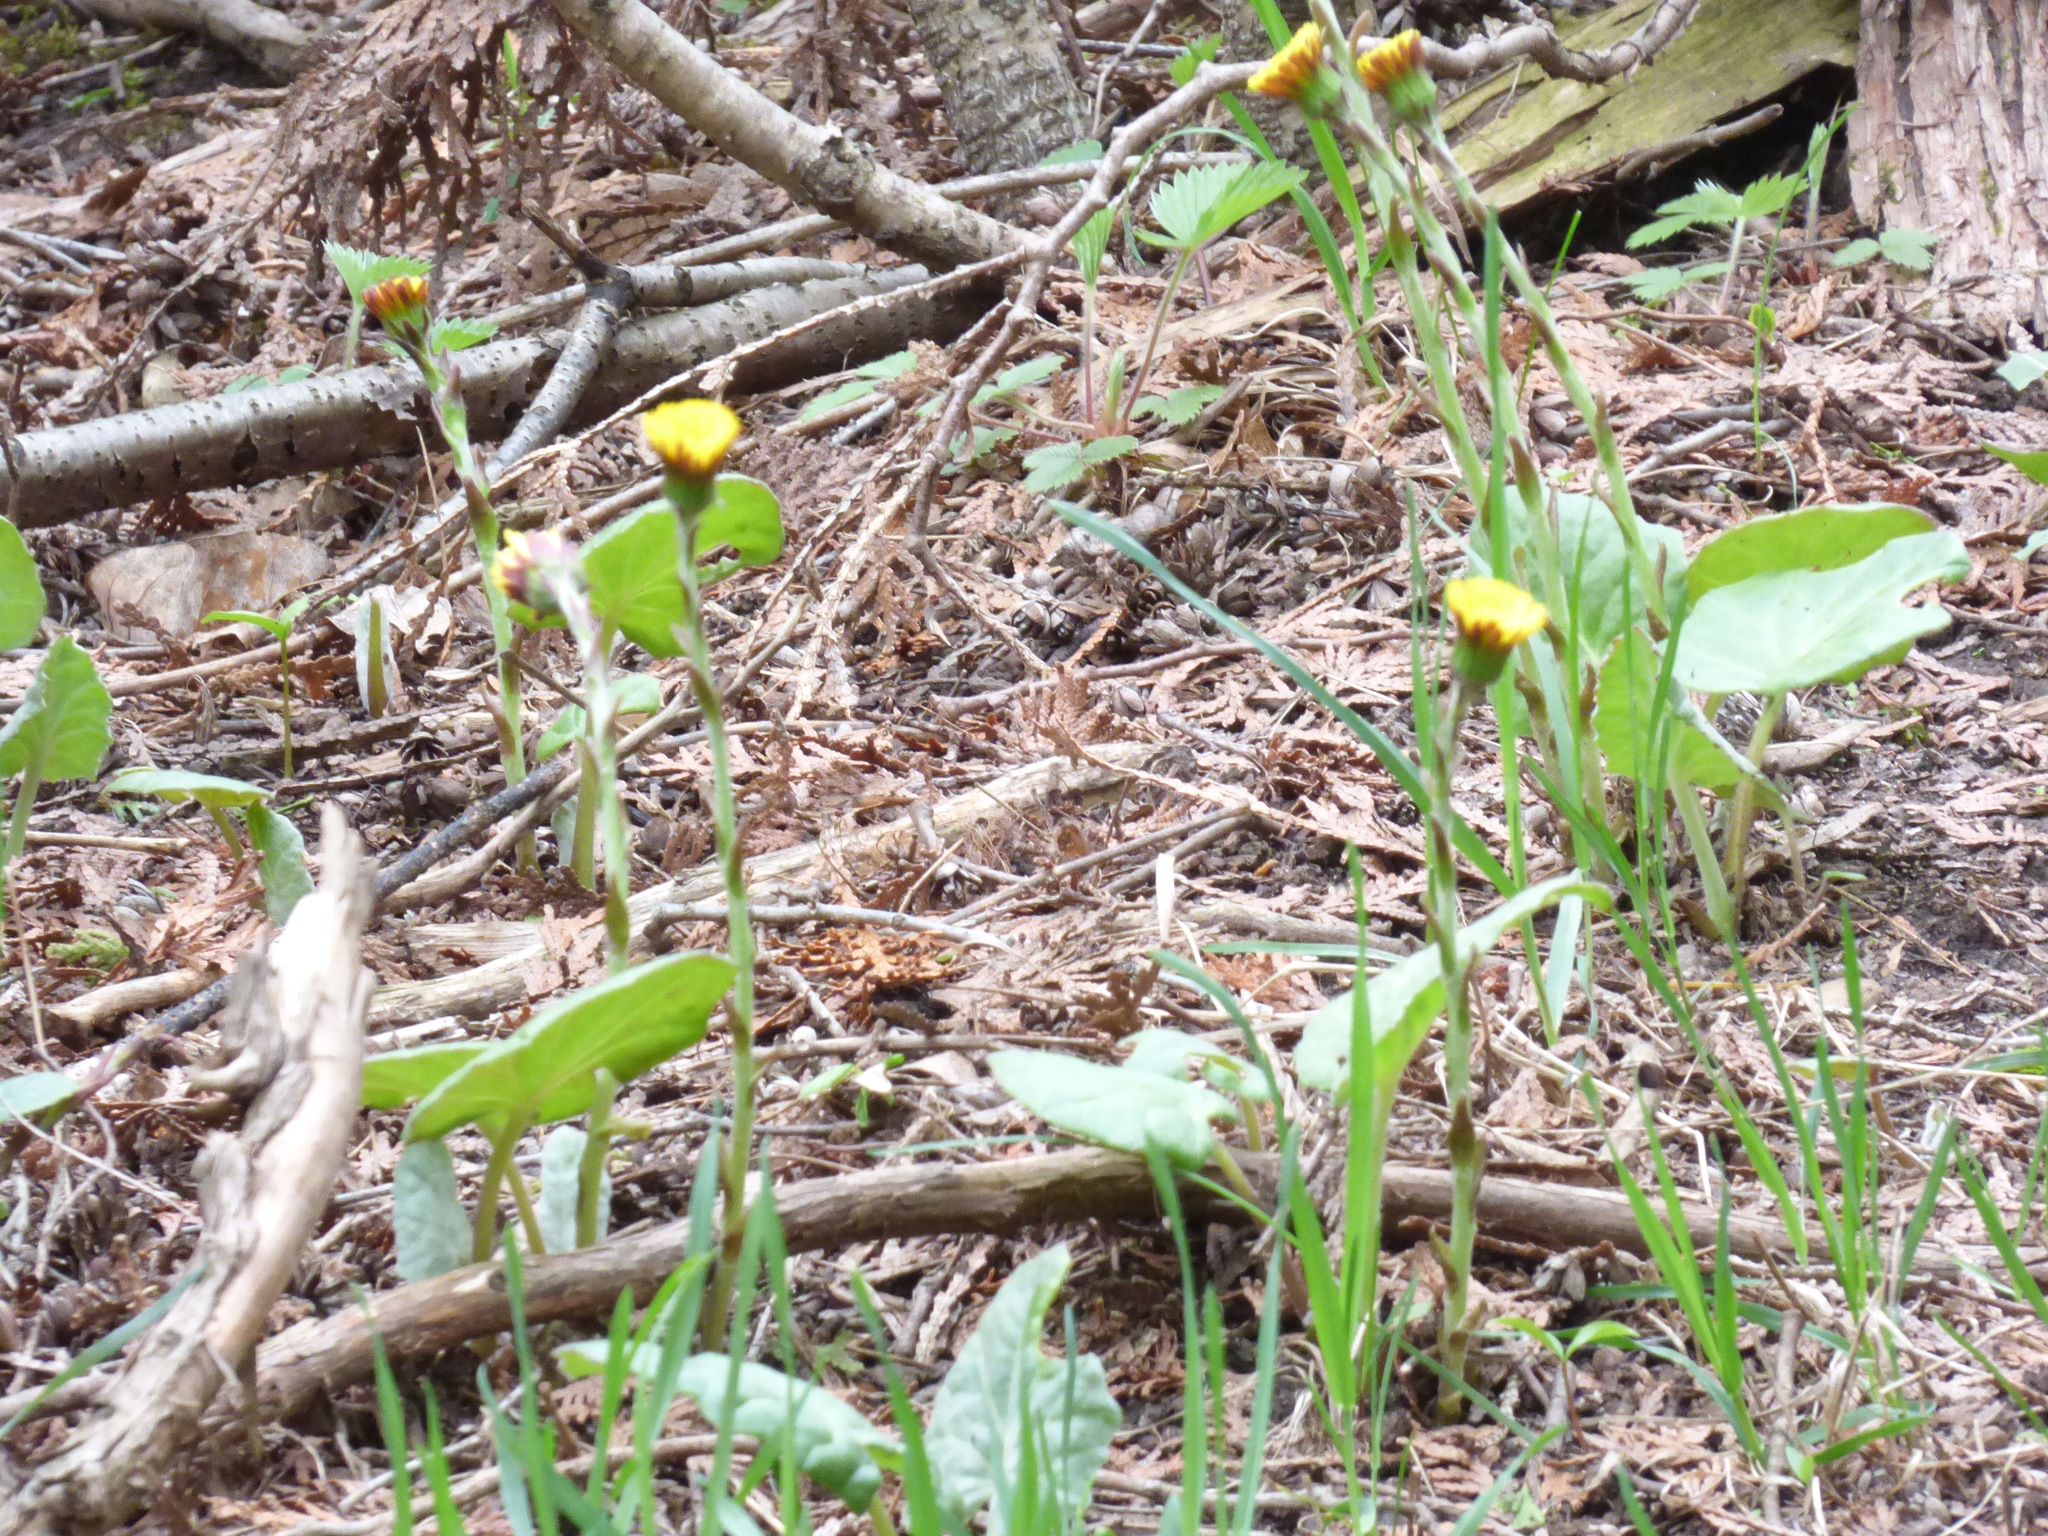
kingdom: Plantae
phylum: Tracheophyta
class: Magnoliopsida
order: Asterales
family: Asteraceae
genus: Tussilago
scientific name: Tussilago farfara
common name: Coltsfoot
